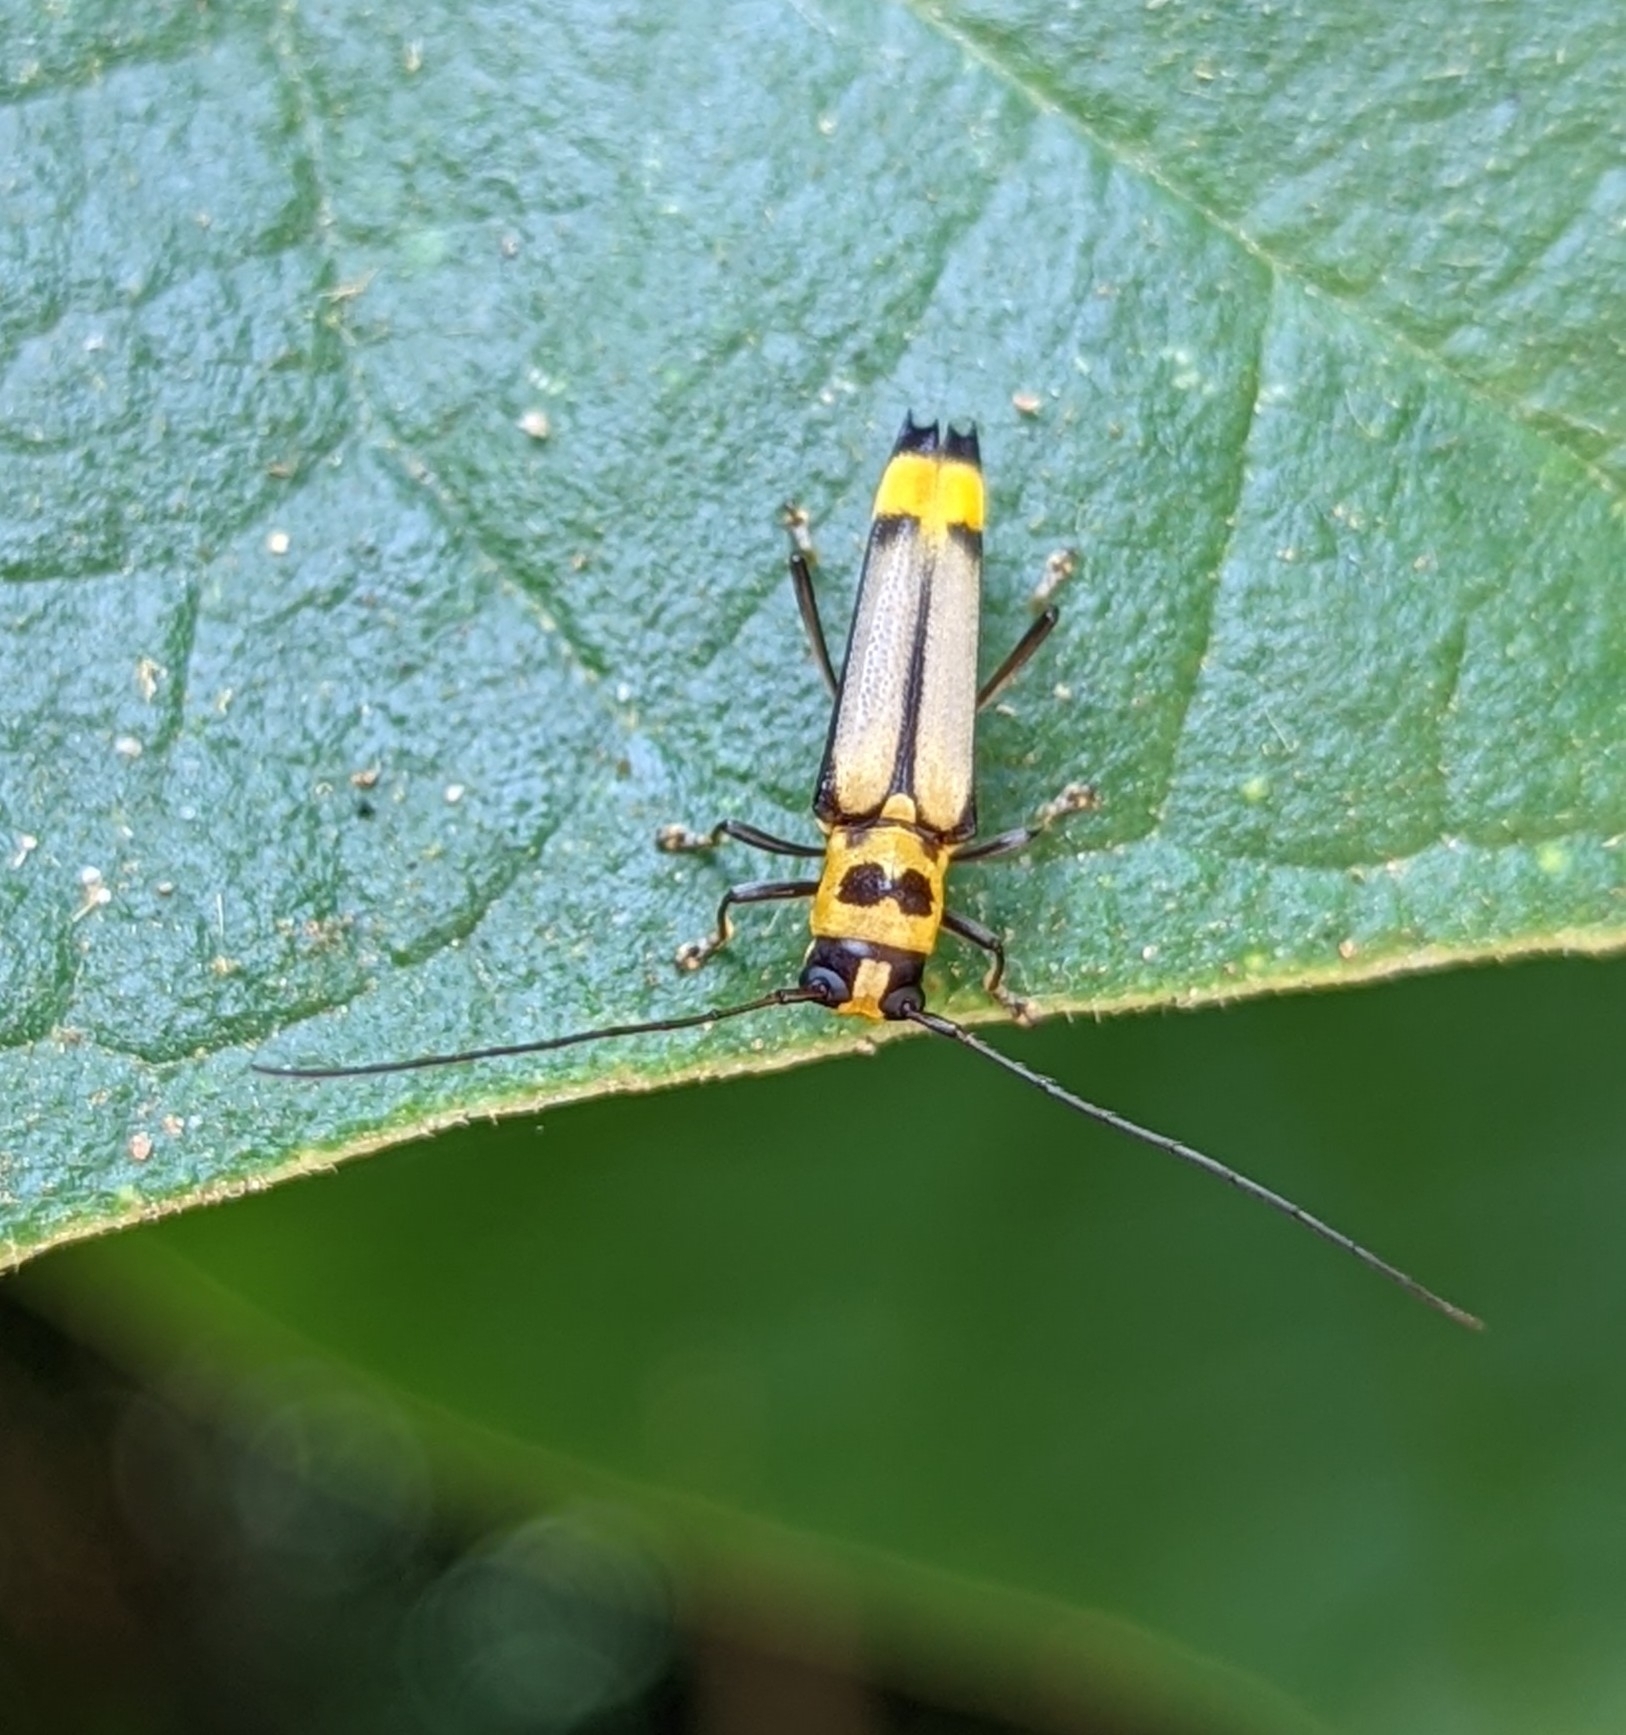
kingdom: Animalia
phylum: Arthropoda
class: Insecta
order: Coleoptera
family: Cerambycidae
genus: Glenea
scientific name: Glenea niobe
